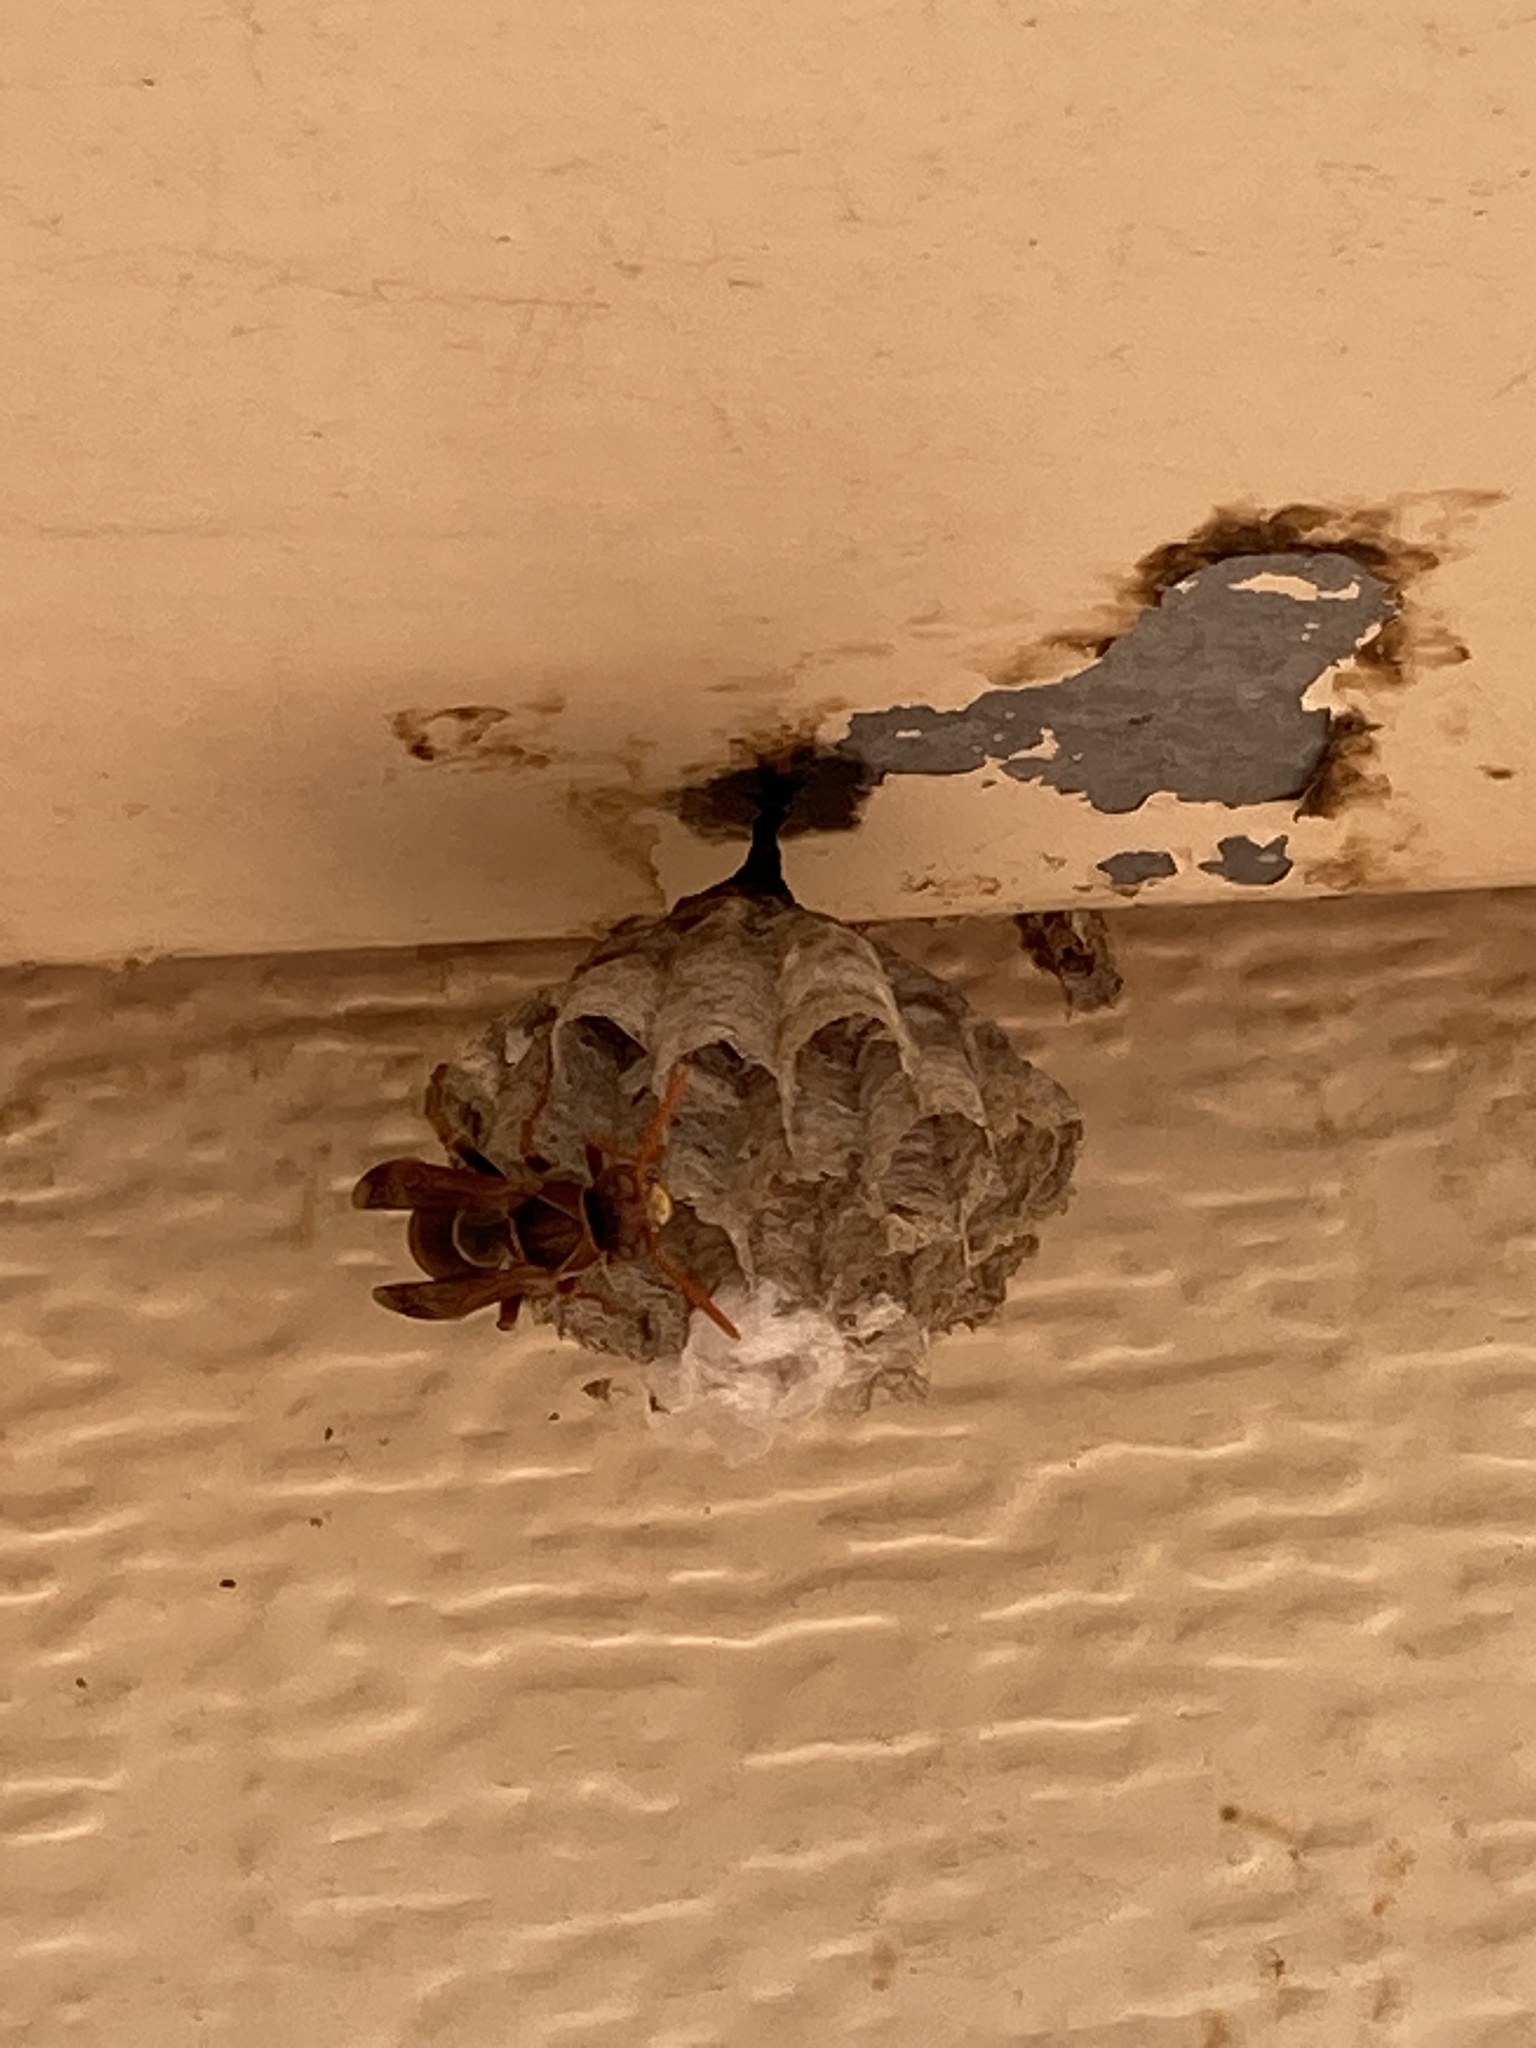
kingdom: Animalia
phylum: Arthropoda
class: Insecta
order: Hymenoptera
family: Eumenidae
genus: Polistes
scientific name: Polistes humilis
